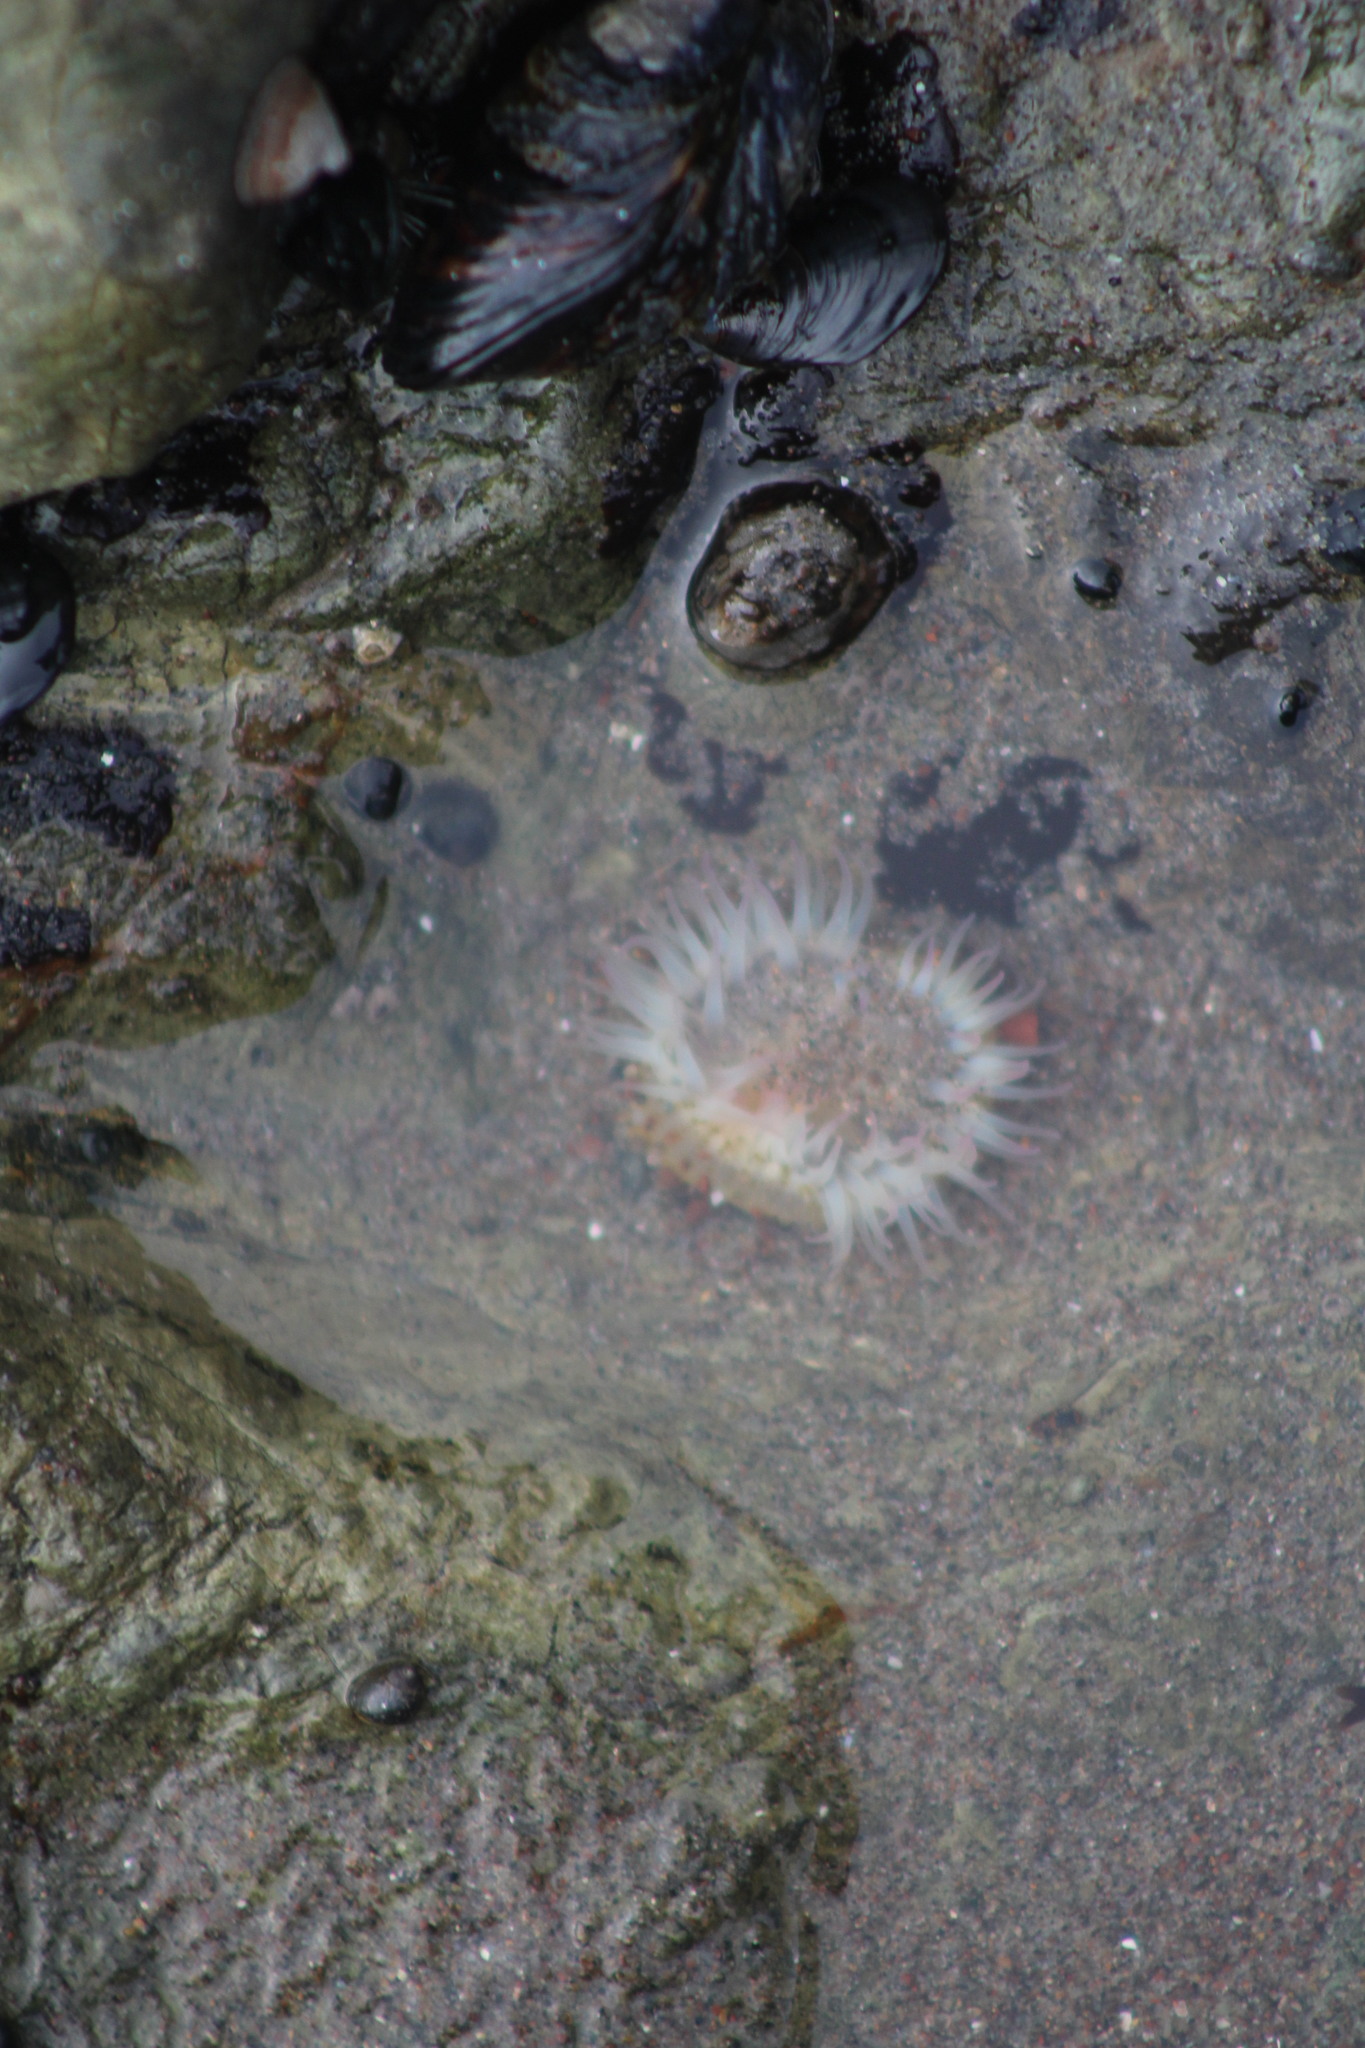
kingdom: Animalia
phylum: Cnidaria
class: Anthozoa
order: Actiniaria
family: Actiniidae
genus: Anthopleura
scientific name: Anthopleura sola
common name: Sun anemone
